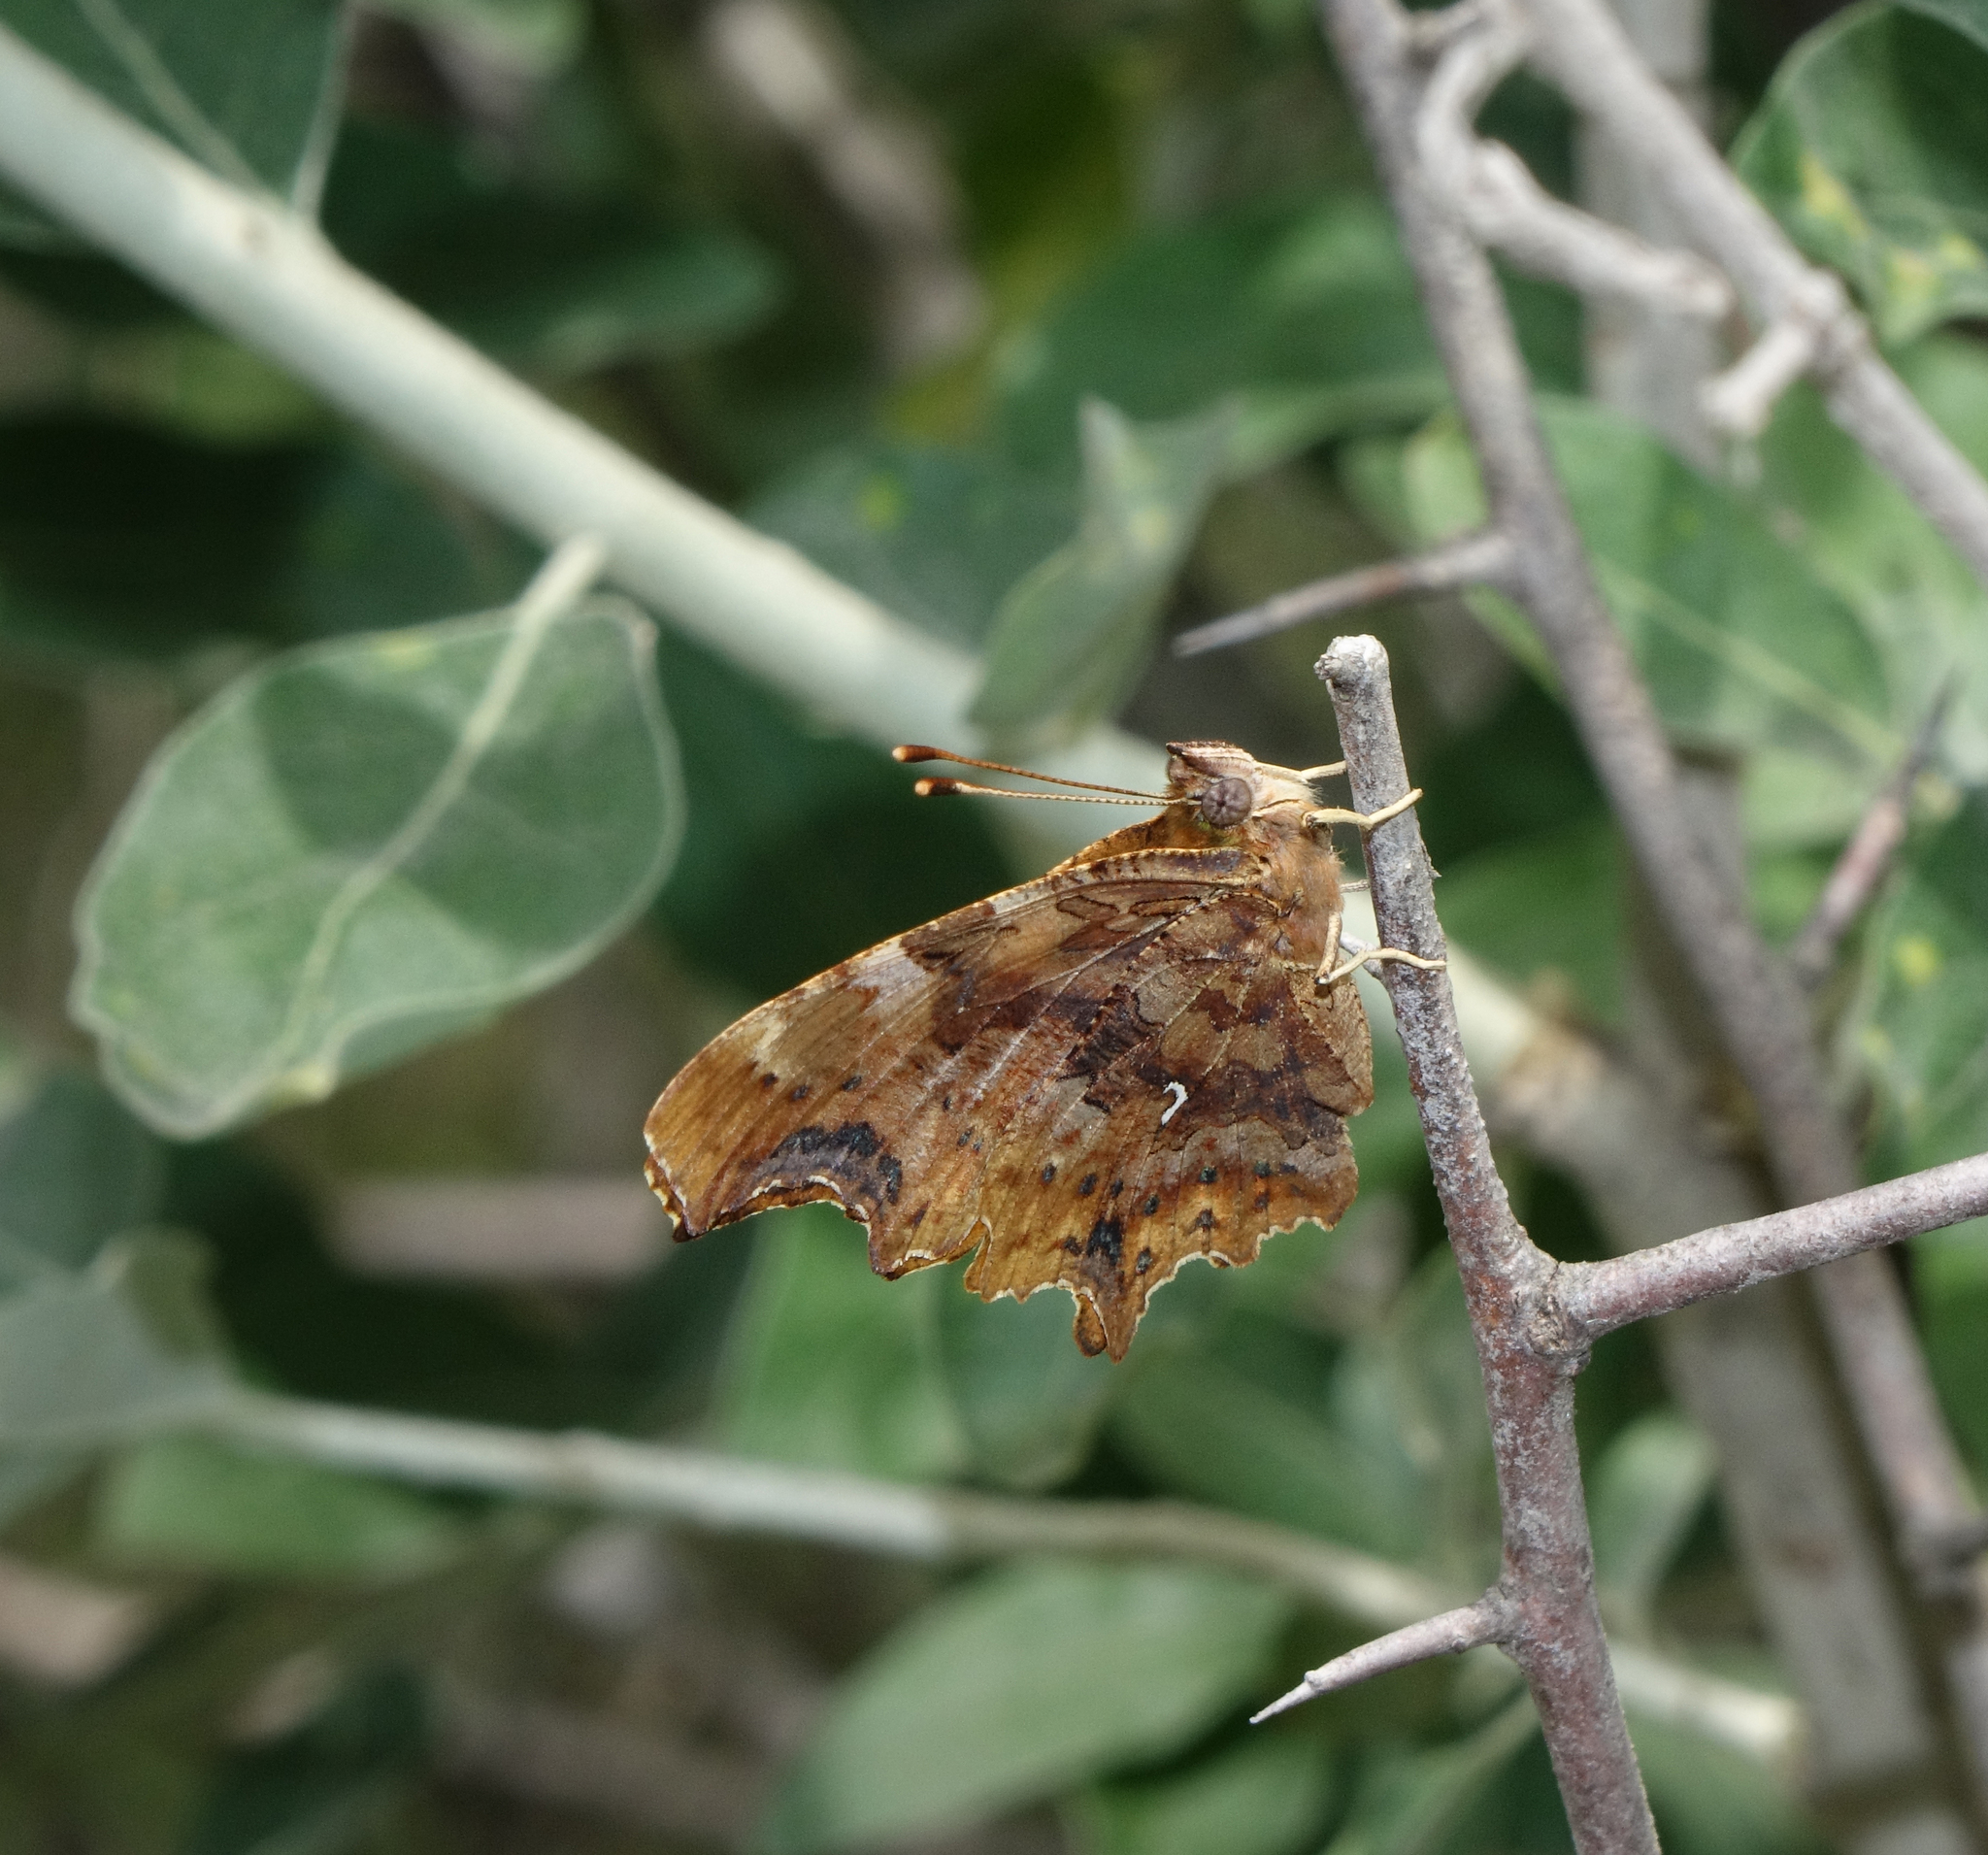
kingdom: Animalia
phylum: Arthropoda
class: Insecta
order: Lepidoptera
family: Nymphalidae
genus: Polygonia
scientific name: Polygonia c-album
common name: Comma
